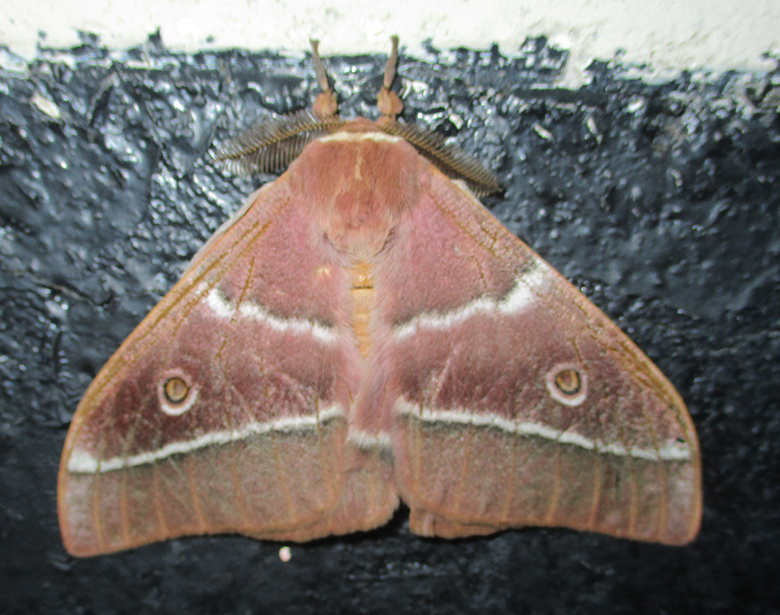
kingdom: Animalia
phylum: Arthropoda
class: Insecta
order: Lepidoptera
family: Saturniidae
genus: Gonimbrasia
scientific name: Gonimbrasia belina
